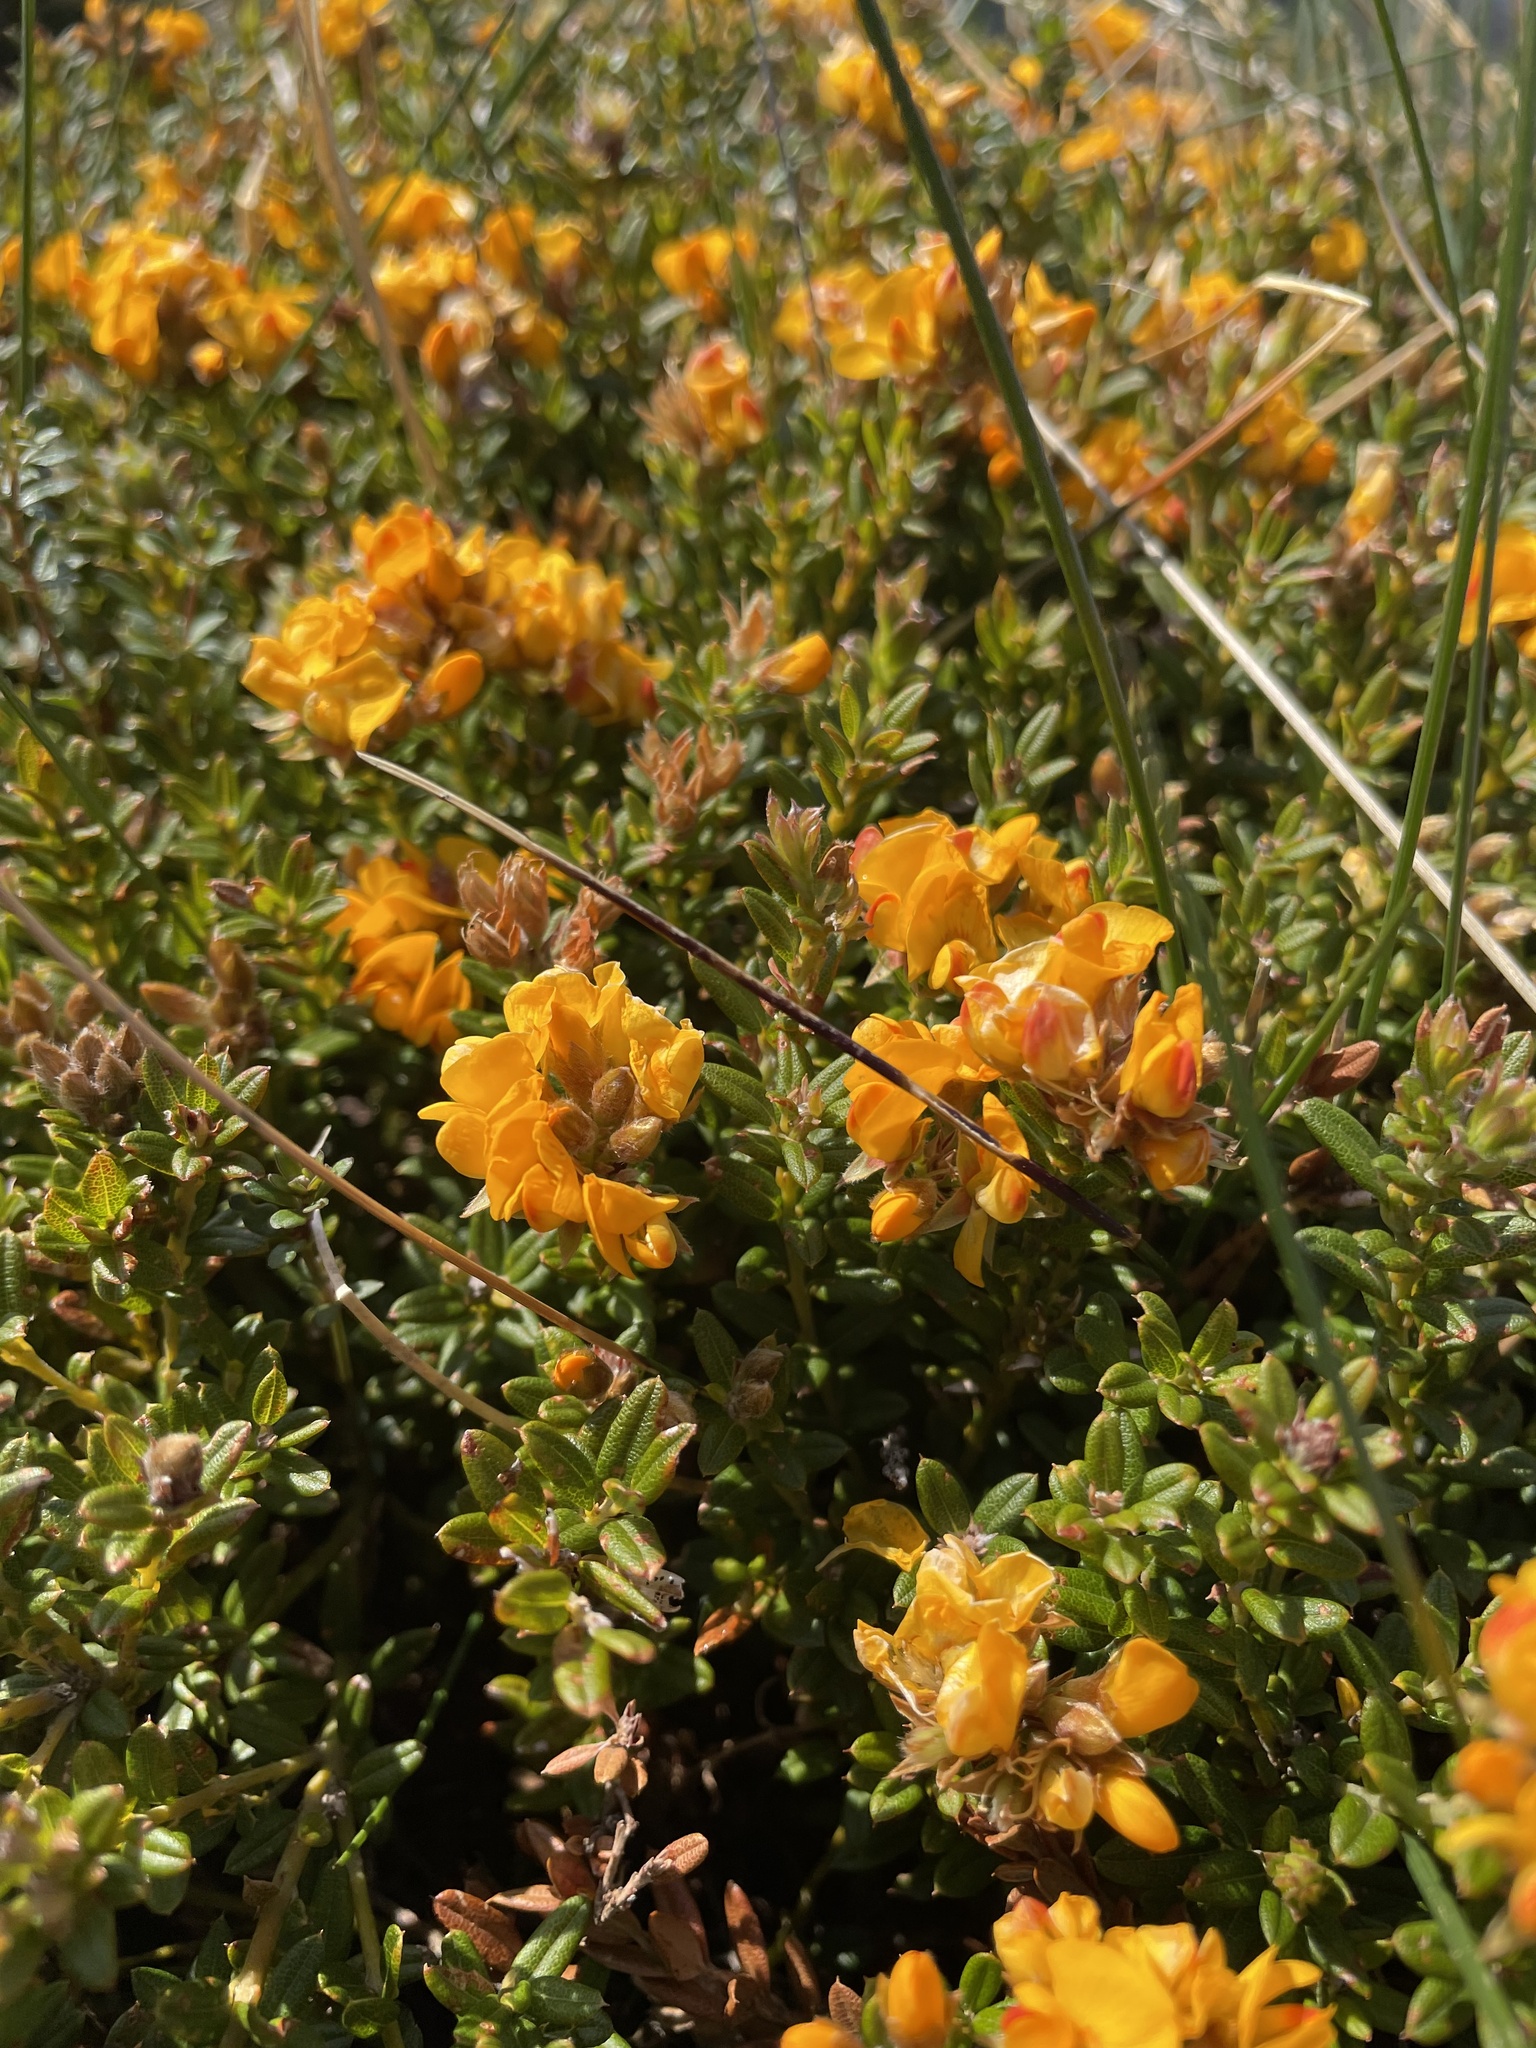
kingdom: Plantae
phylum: Tracheophyta
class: Magnoliopsida
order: Fabales
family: Fabaceae
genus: Oxylobium
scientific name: Oxylobium ellipticum
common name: Golden shaggy-pea
